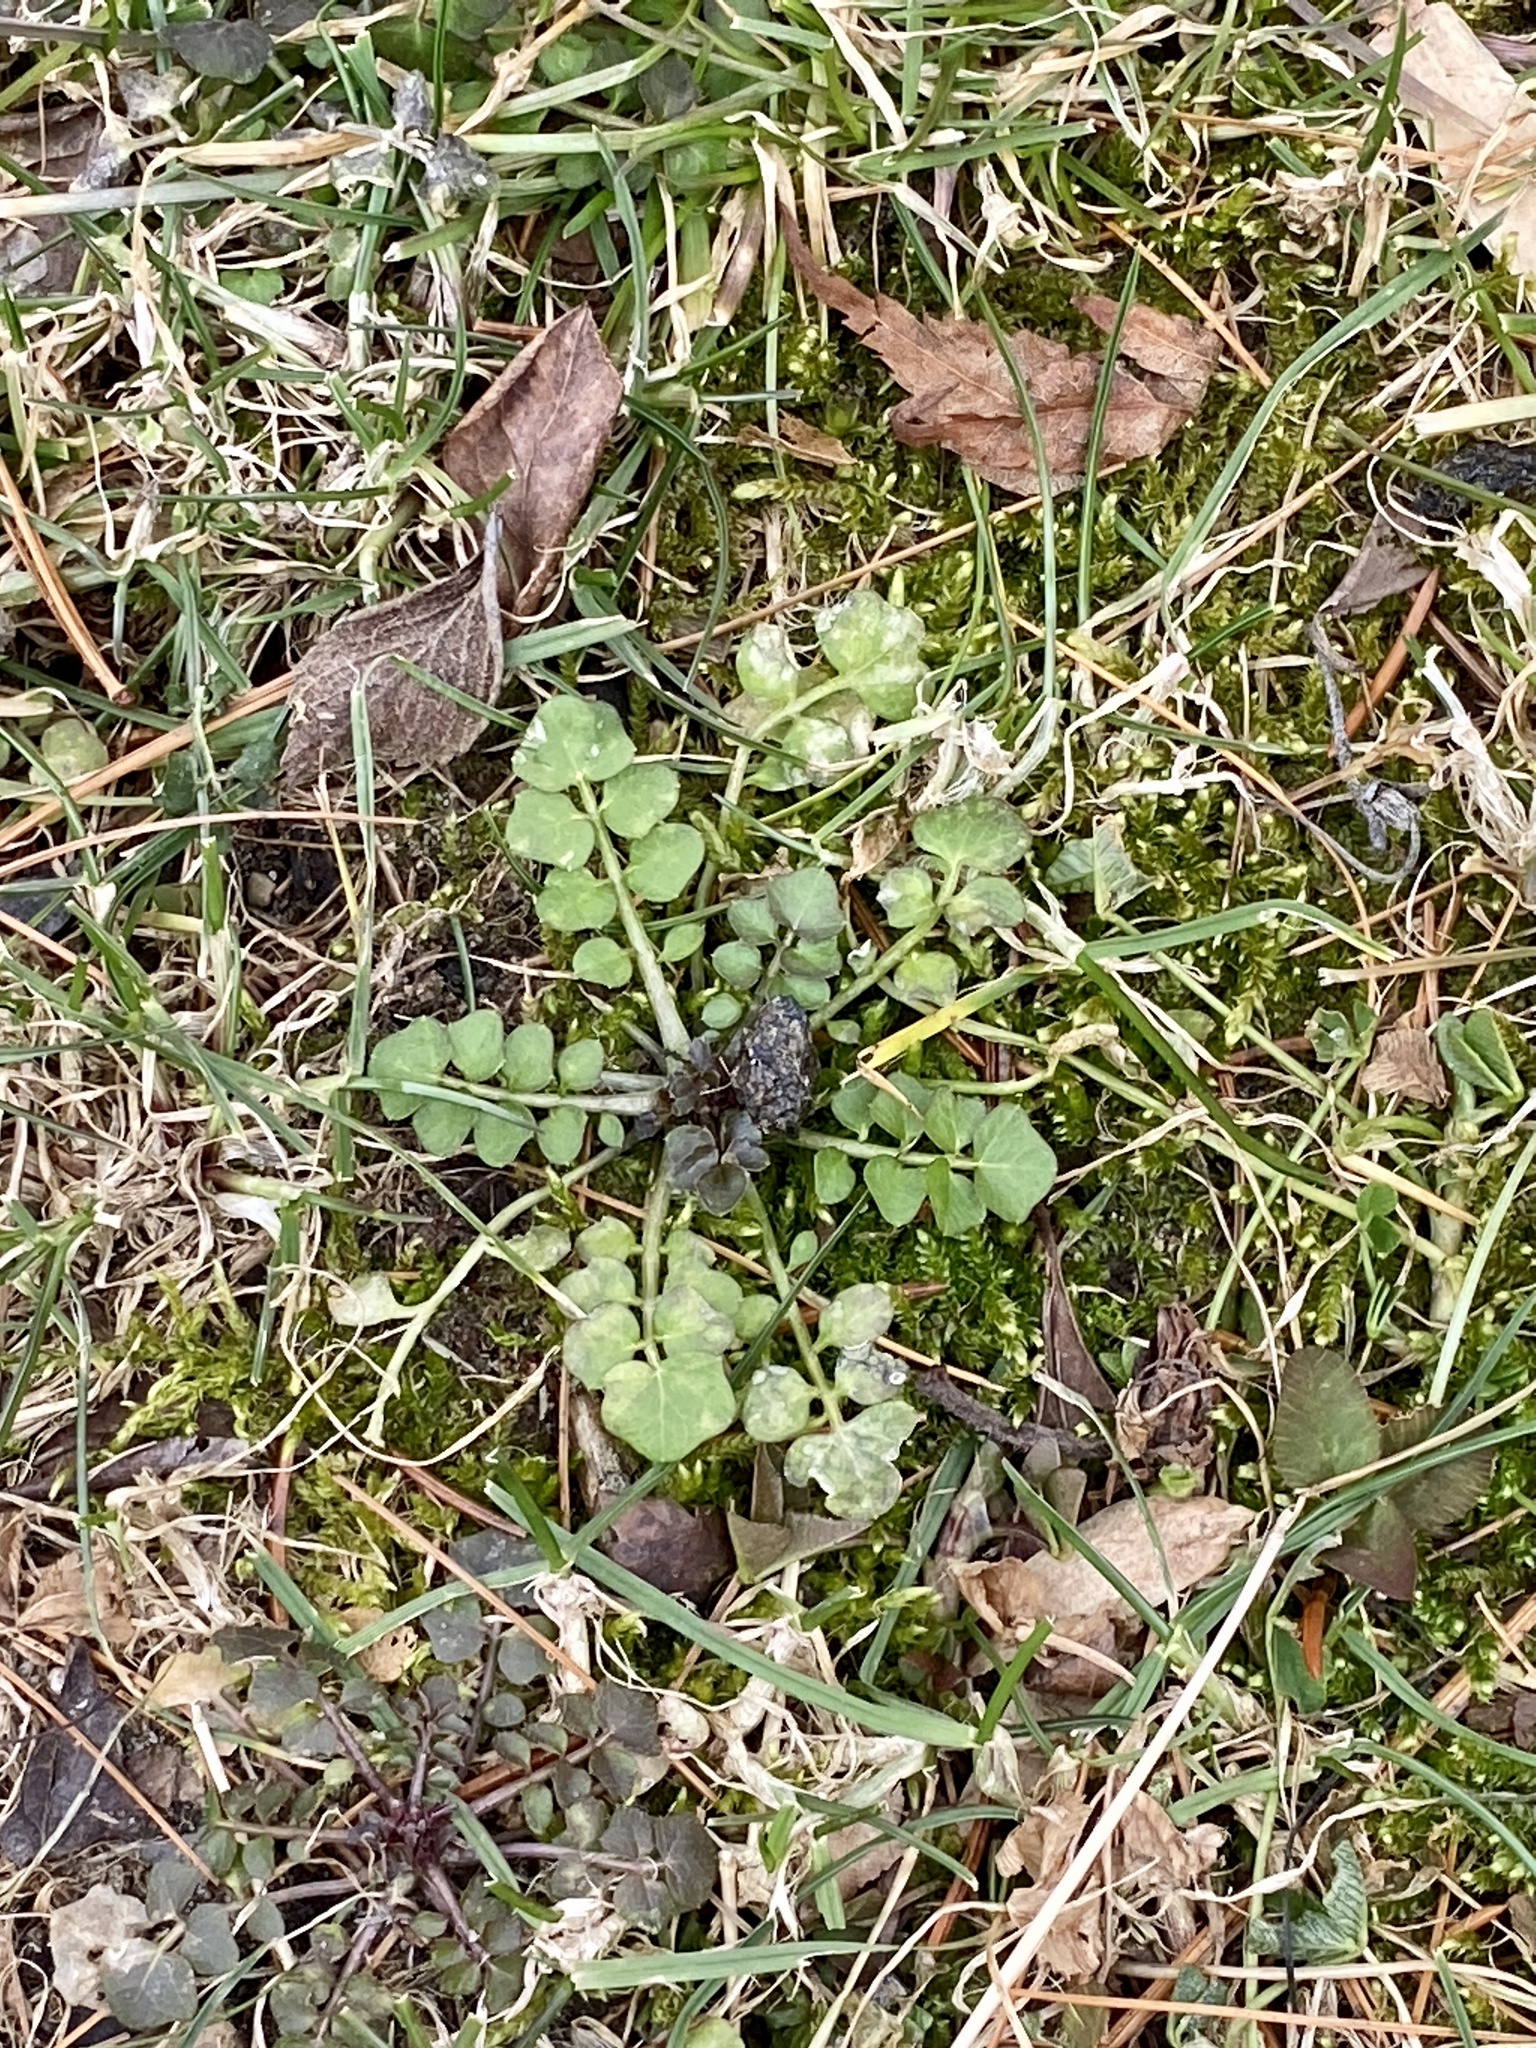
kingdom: Plantae
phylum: Tracheophyta
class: Magnoliopsida
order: Brassicales
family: Brassicaceae
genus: Cardamine
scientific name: Cardamine hirsuta
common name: Hairy bittercress
